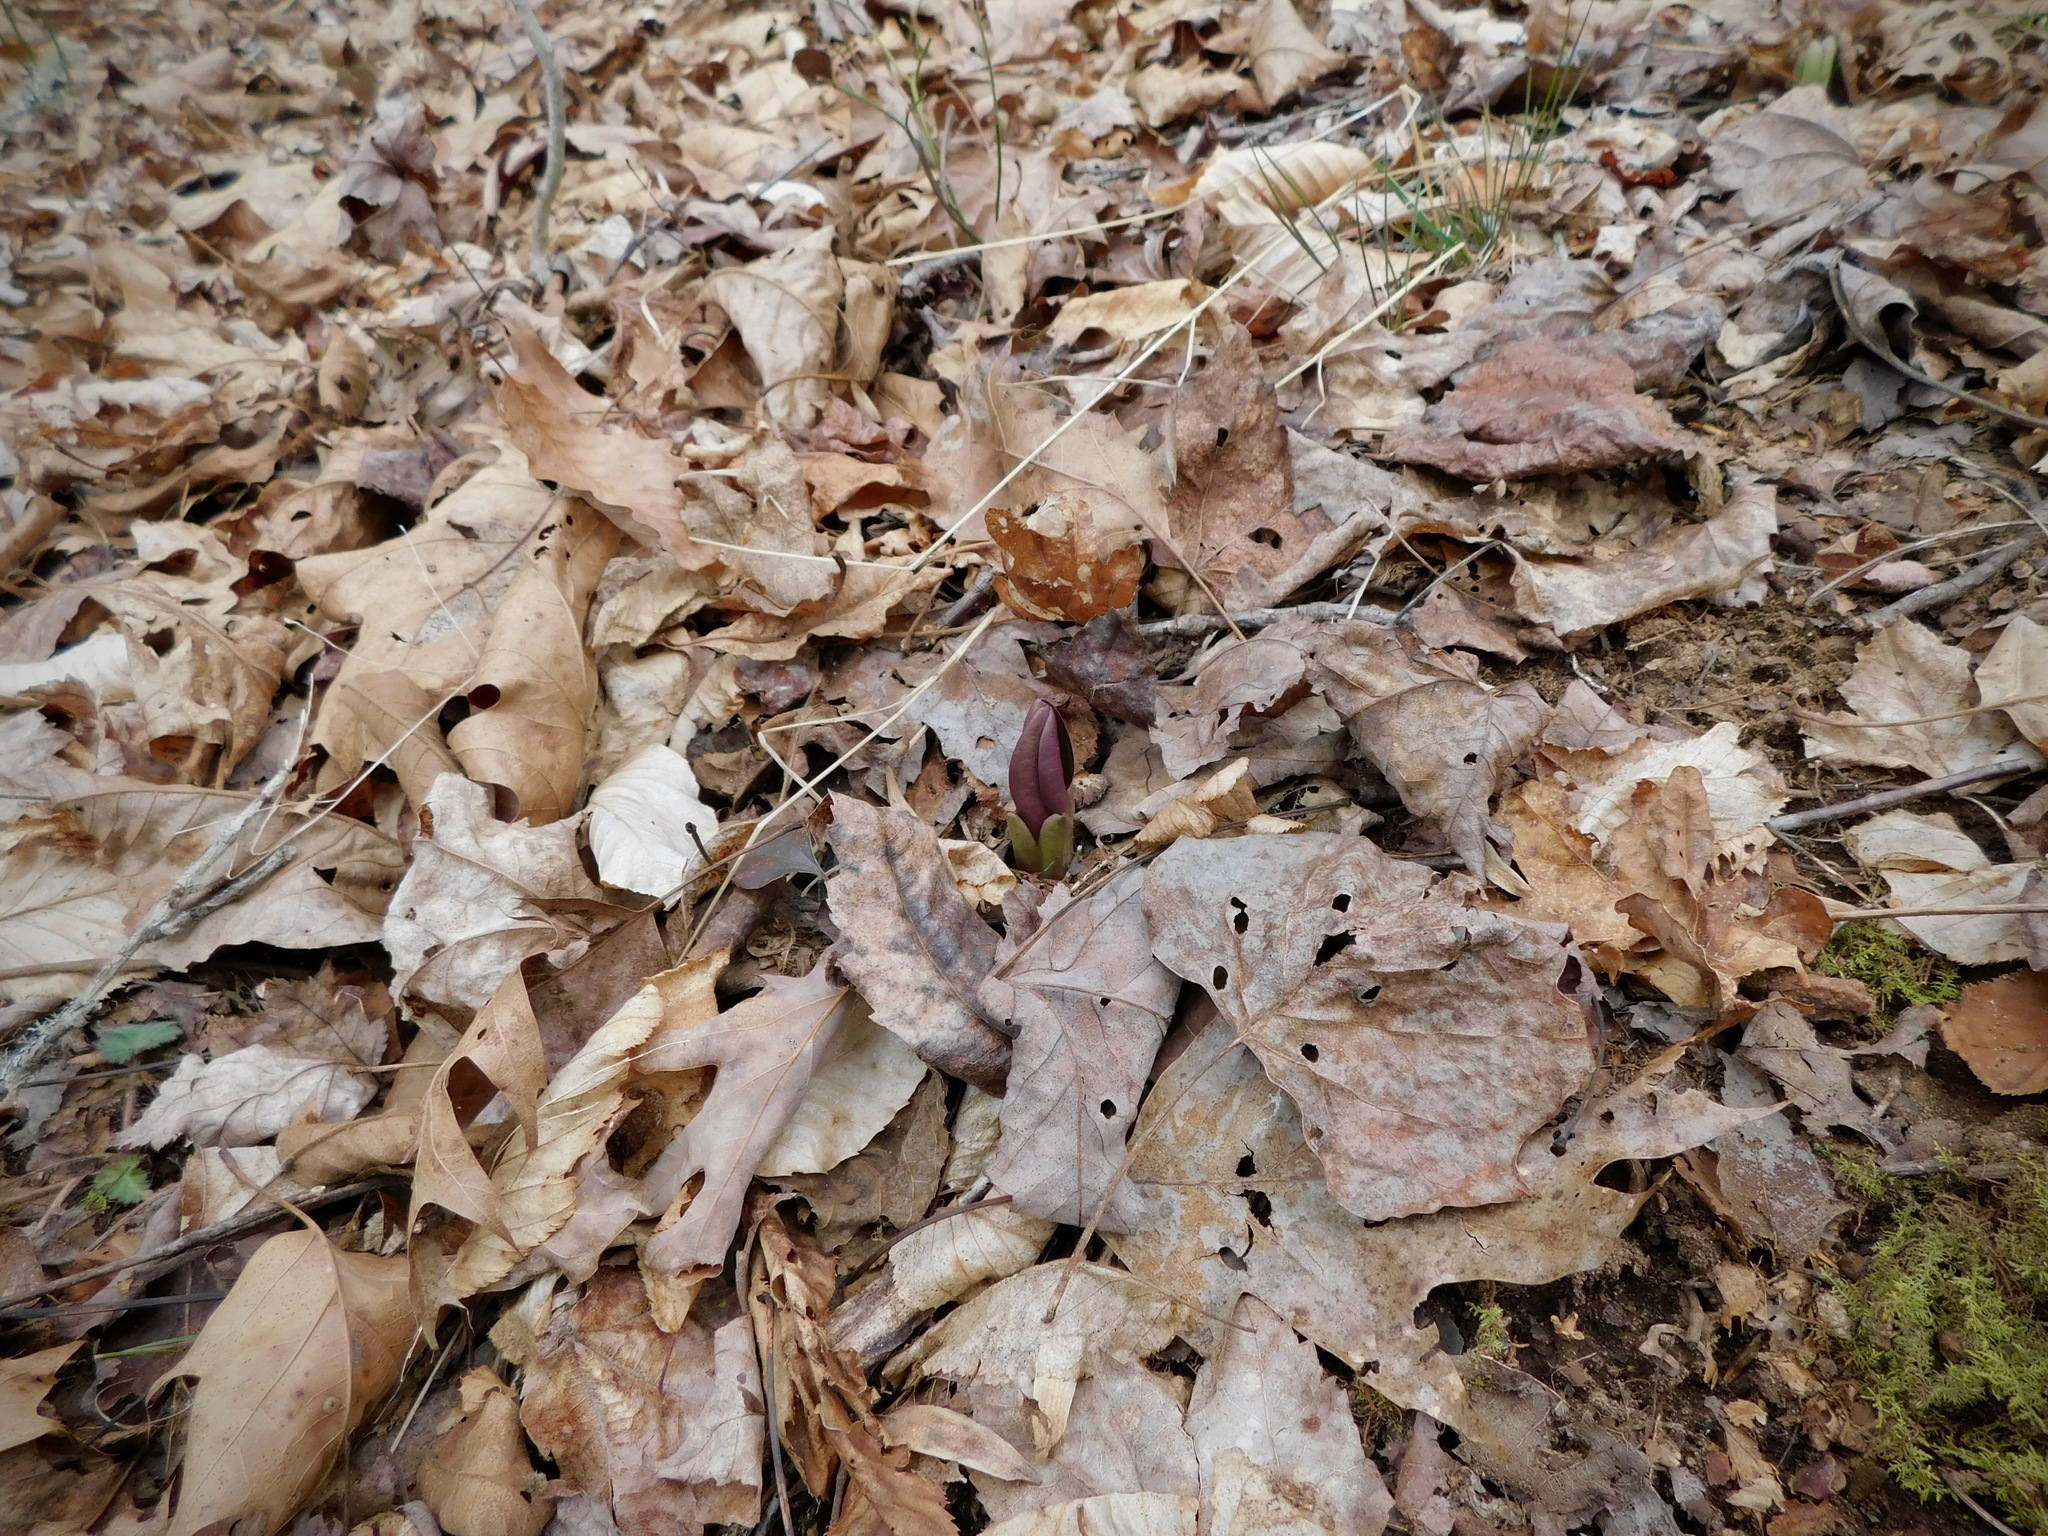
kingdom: Plantae
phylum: Tracheophyta
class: Magnoliopsida
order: Gentianales
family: Gentianaceae
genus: Frasera
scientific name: Frasera caroliniensis
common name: American columbo
